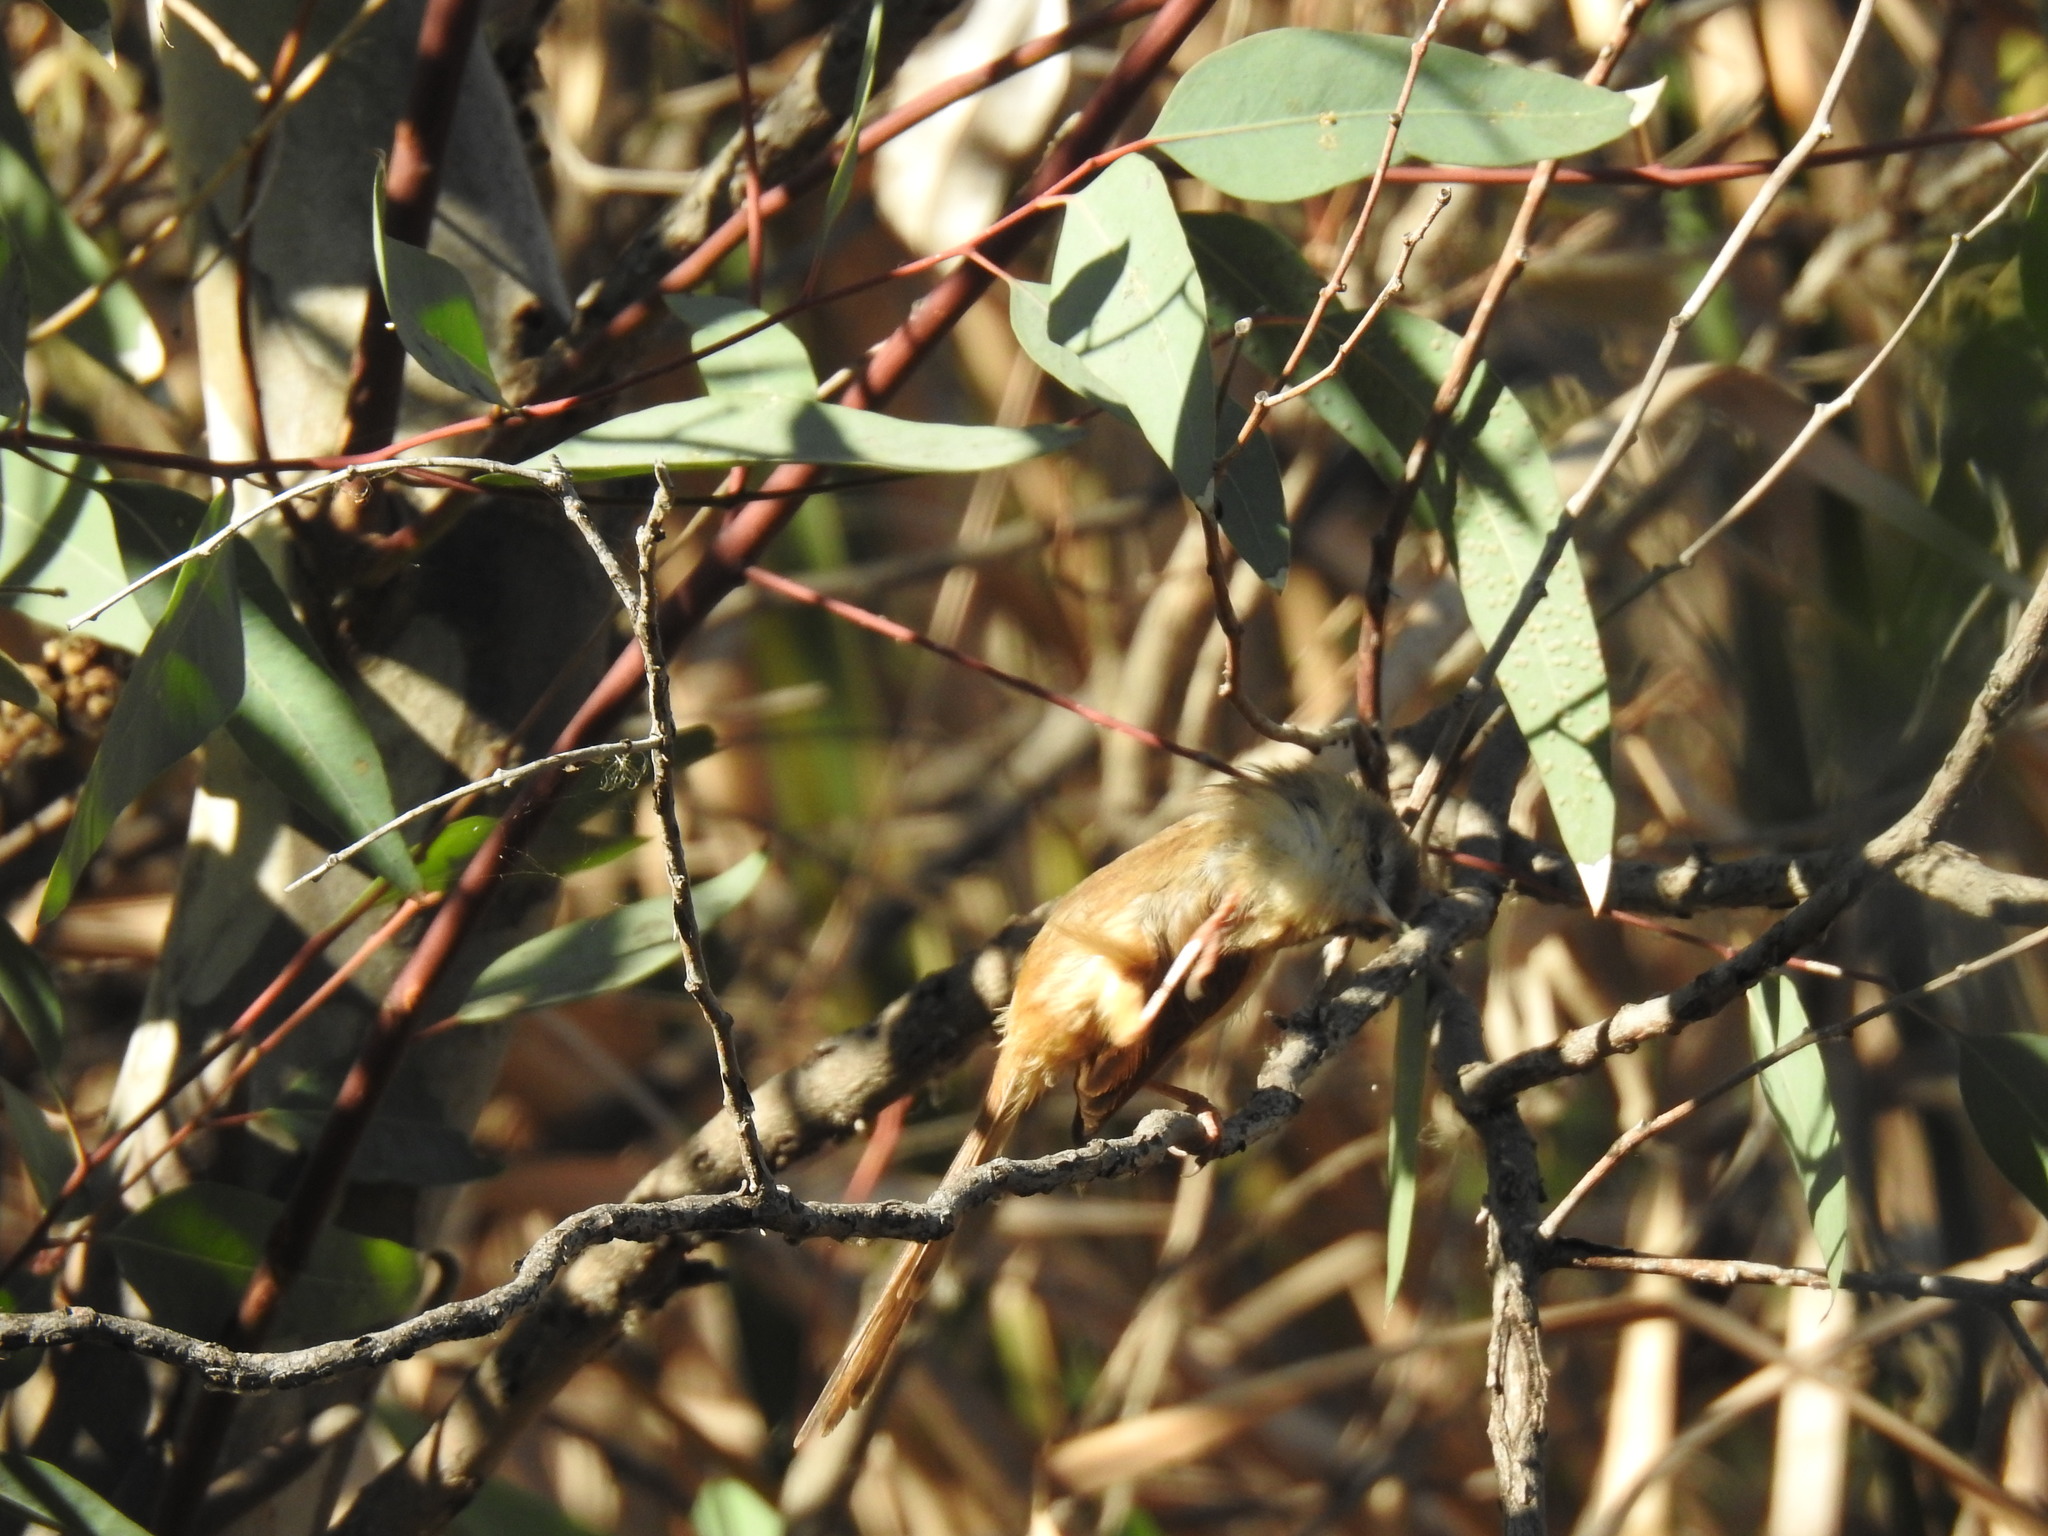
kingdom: Animalia
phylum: Chordata
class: Aves
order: Passeriformes
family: Cisticolidae
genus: Prinia
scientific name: Prinia subflava
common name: Tawny-flanked prinia
